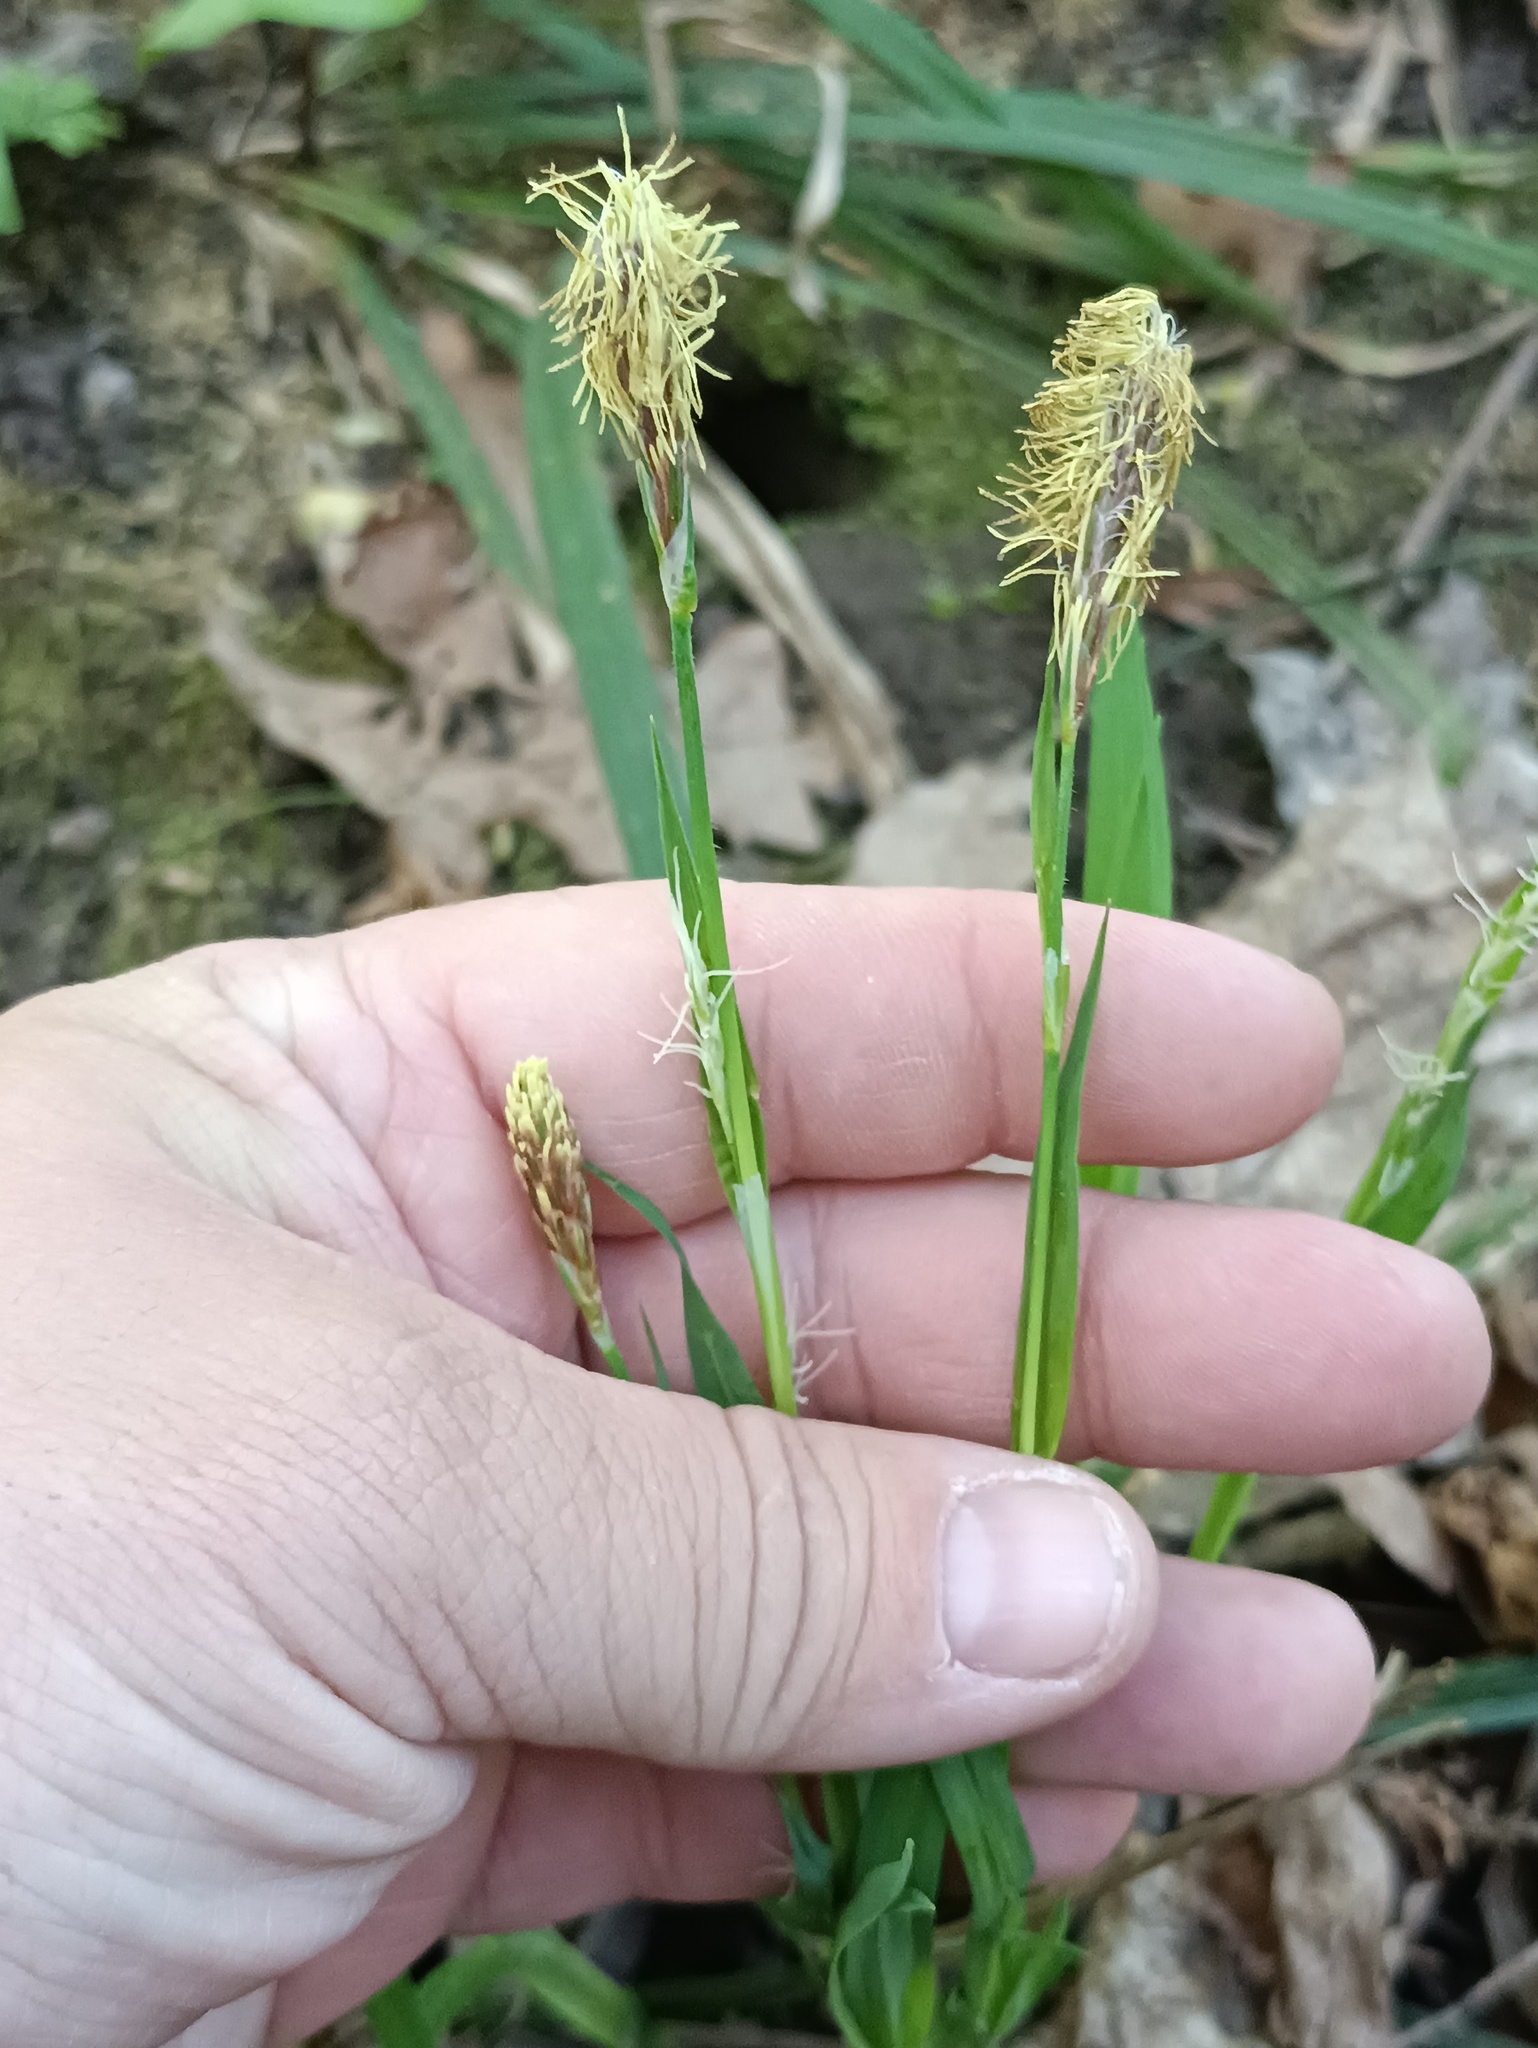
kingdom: Plantae
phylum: Tracheophyta
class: Liliopsida
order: Poales
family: Cyperaceae
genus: Carex
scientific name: Carex pilosa
